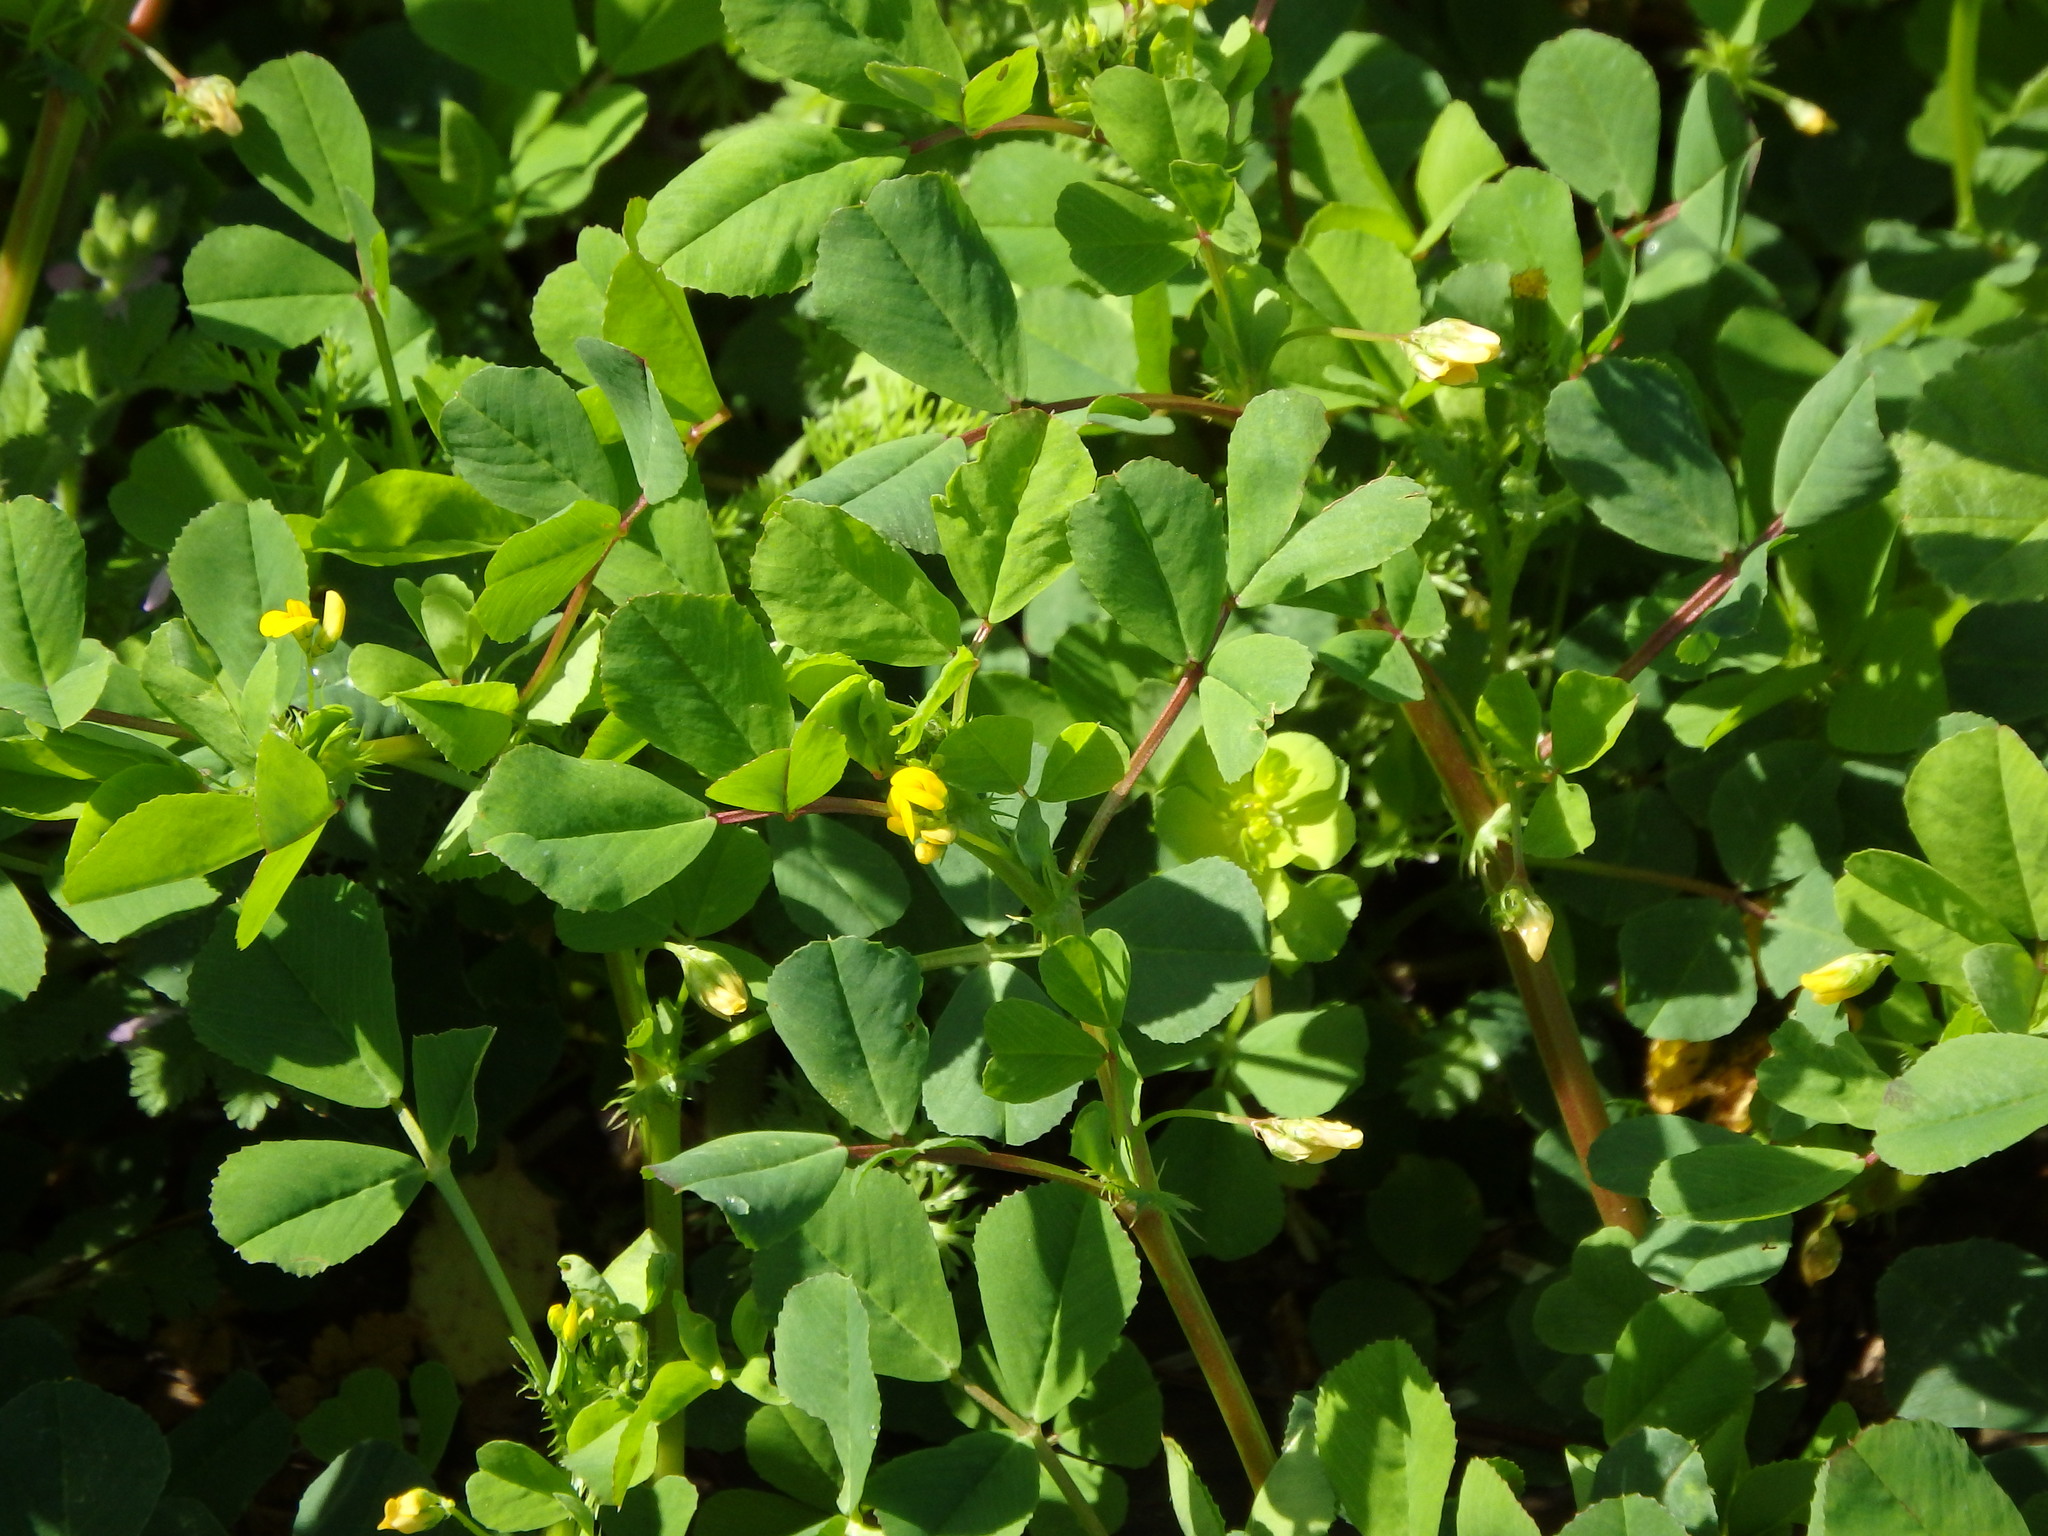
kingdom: Plantae
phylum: Tracheophyta
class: Magnoliopsida
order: Fabales
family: Fabaceae
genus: Medicago
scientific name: Medicago polymorpha
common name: Burclover
